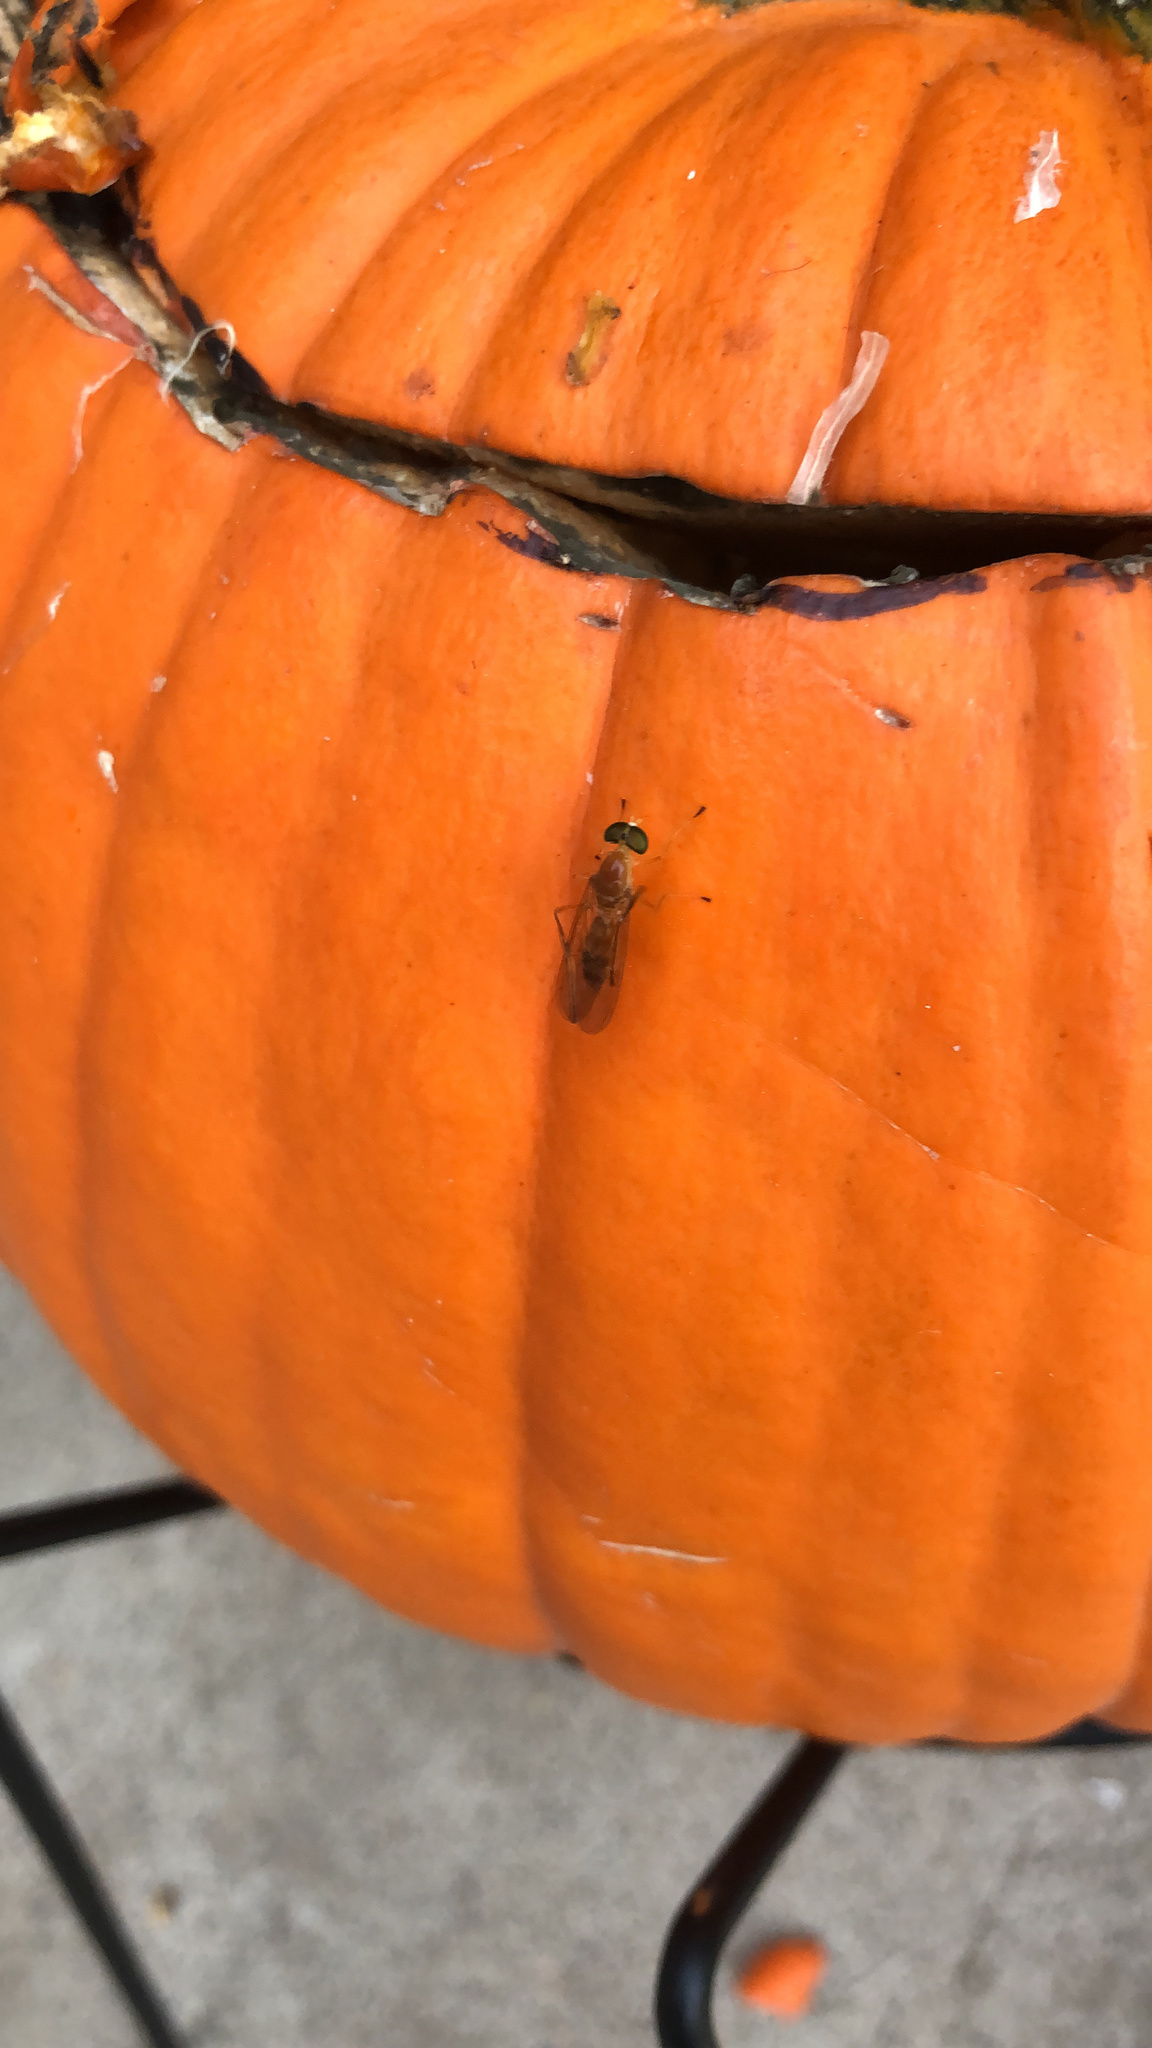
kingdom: Animalia
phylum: Arthropoda
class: Insecta
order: Diptera
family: Stratiomyidae
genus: Ptecticus
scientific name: Ptecticus trivittatus
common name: Compost fly
